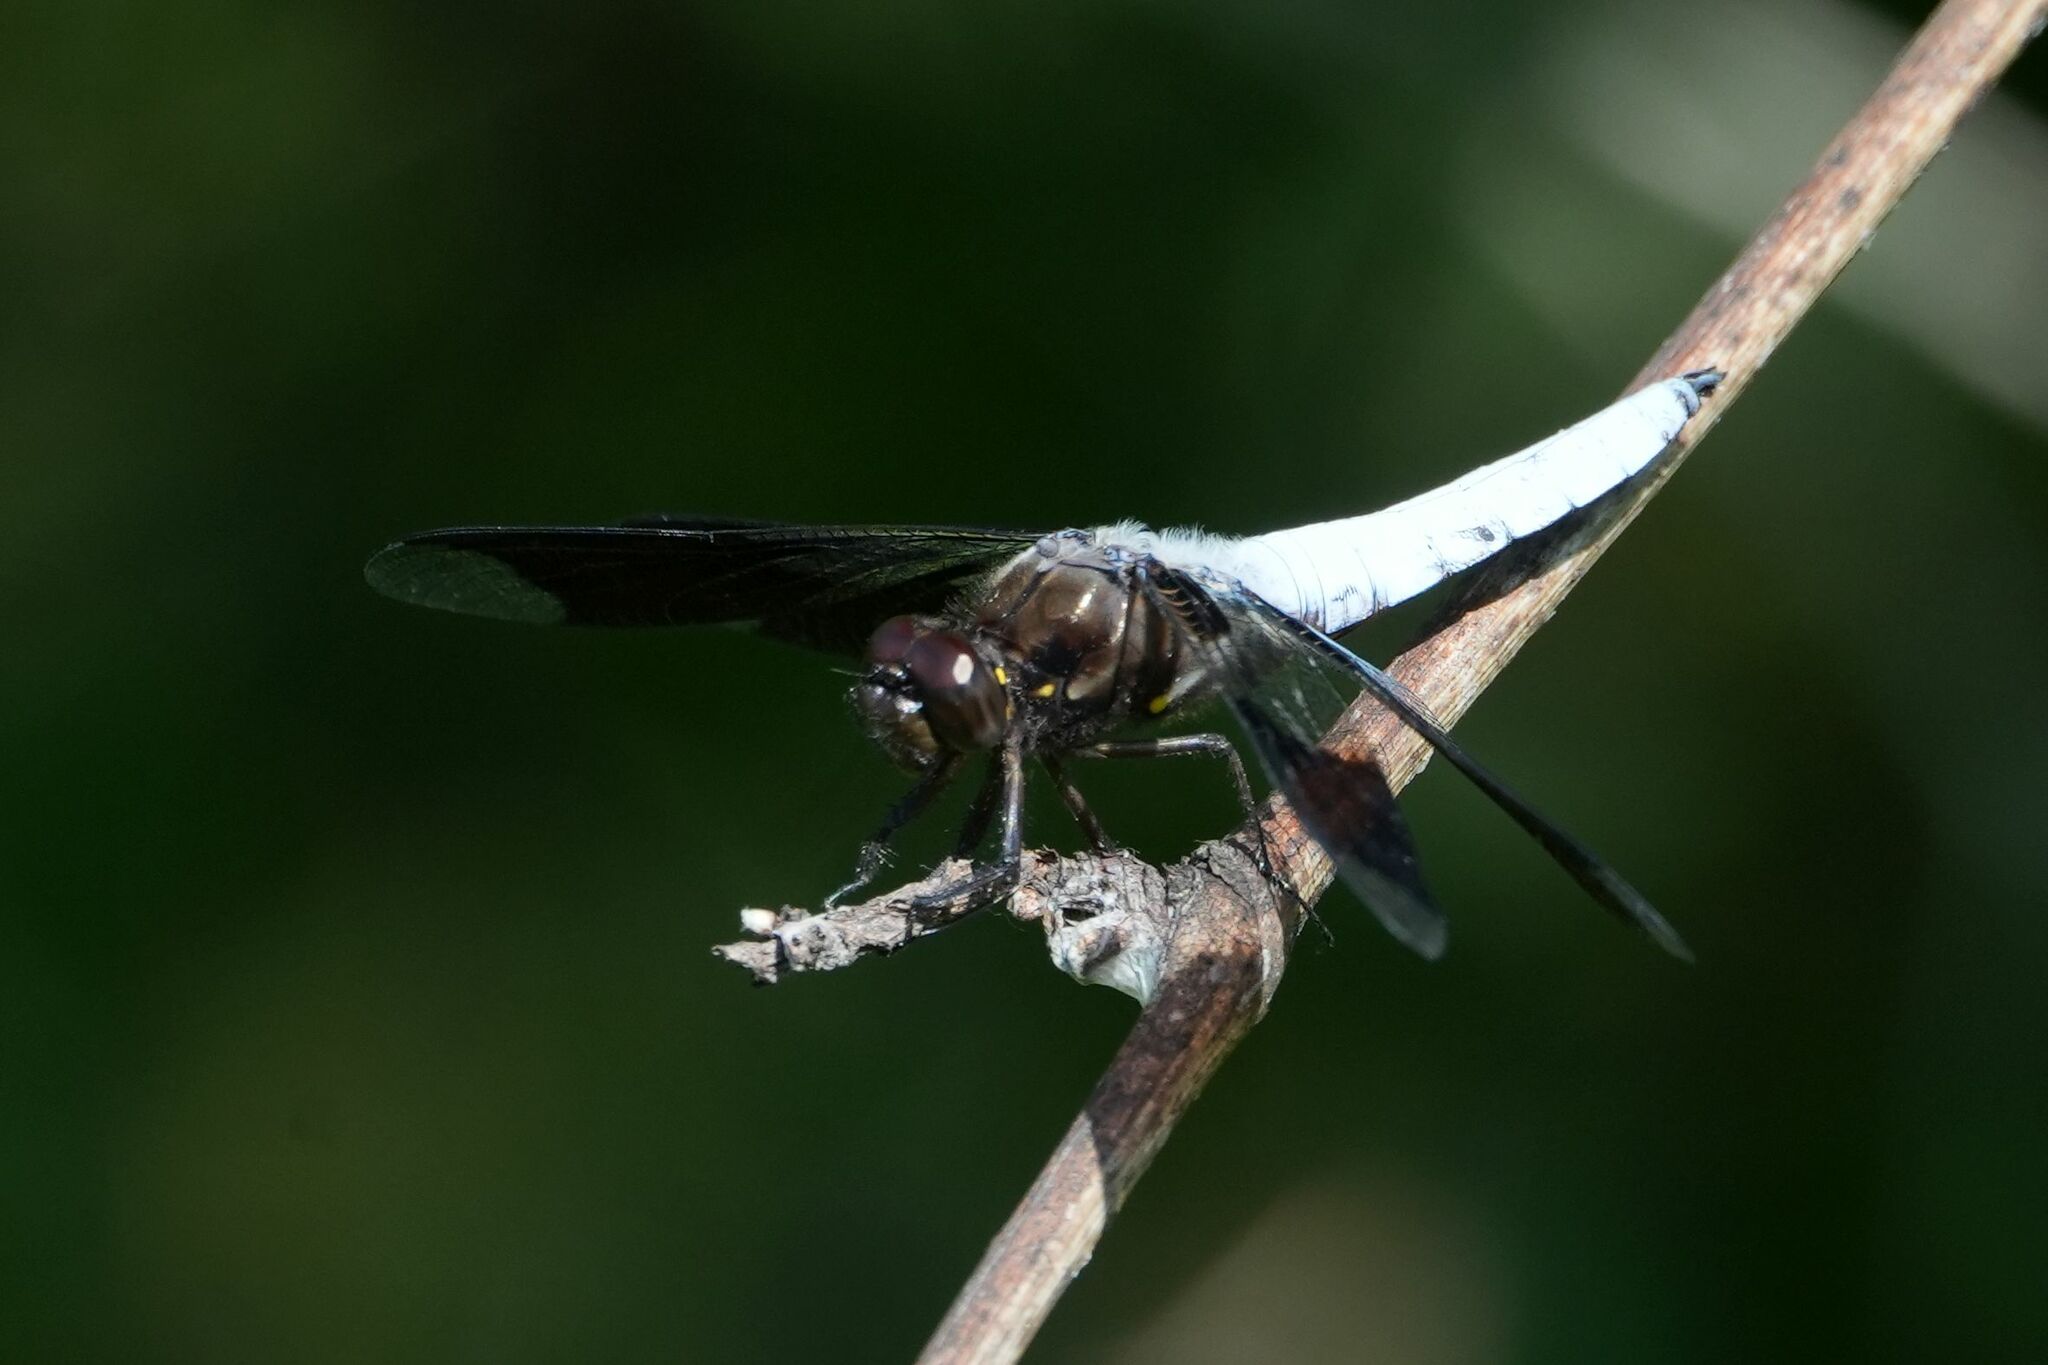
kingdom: Animalia
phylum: Arthropoda
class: Insecta
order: Odonata
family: Libellulidae
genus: Plathemis
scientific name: Plathemis lydia
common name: Common whitetail
